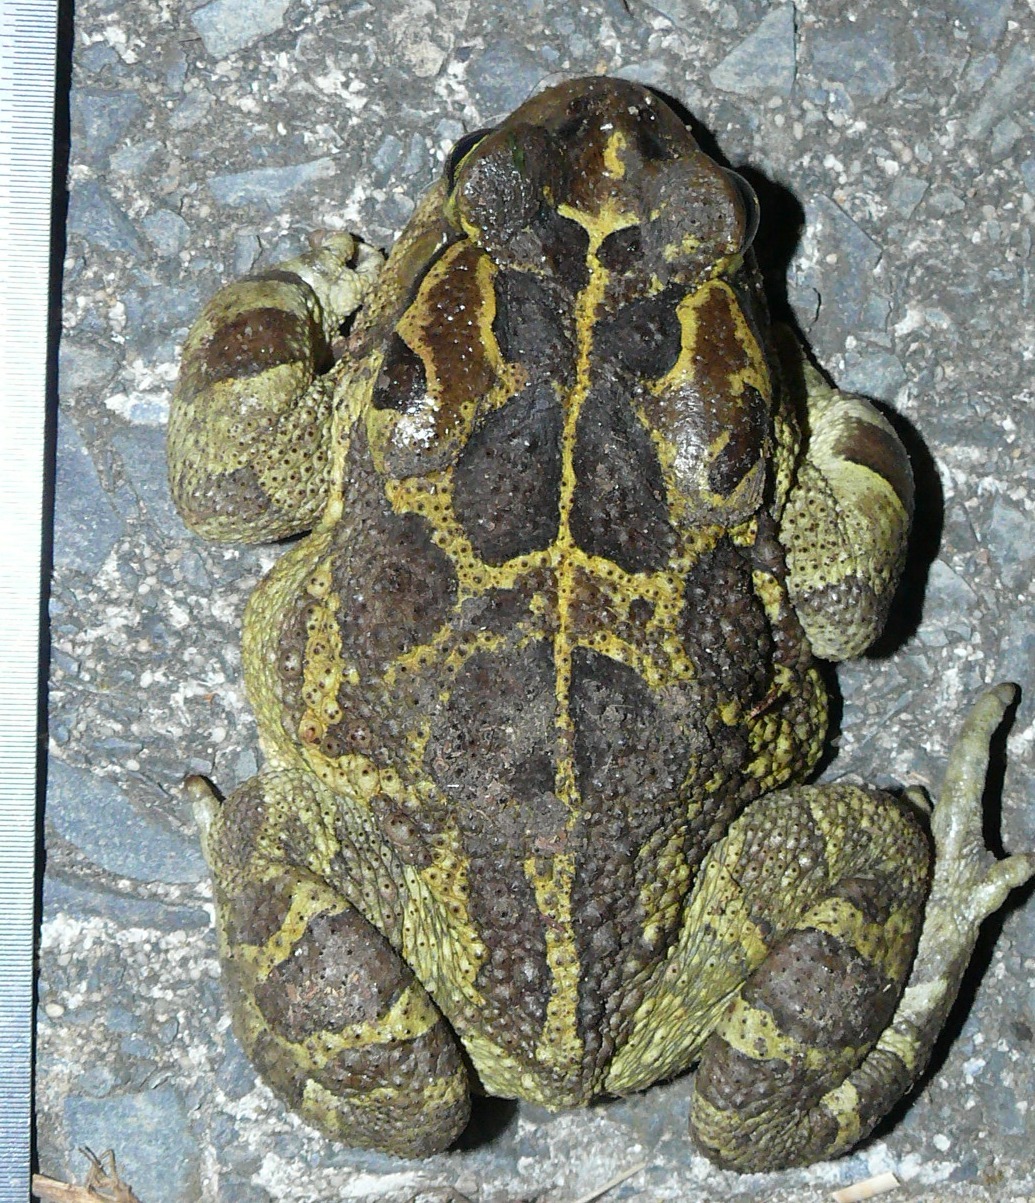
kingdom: Animalia
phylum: Chordata
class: Amphibia
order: Anura
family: Bufonidae
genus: Sclerophrys
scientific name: Sclerophrys pantherina
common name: Panther toad
